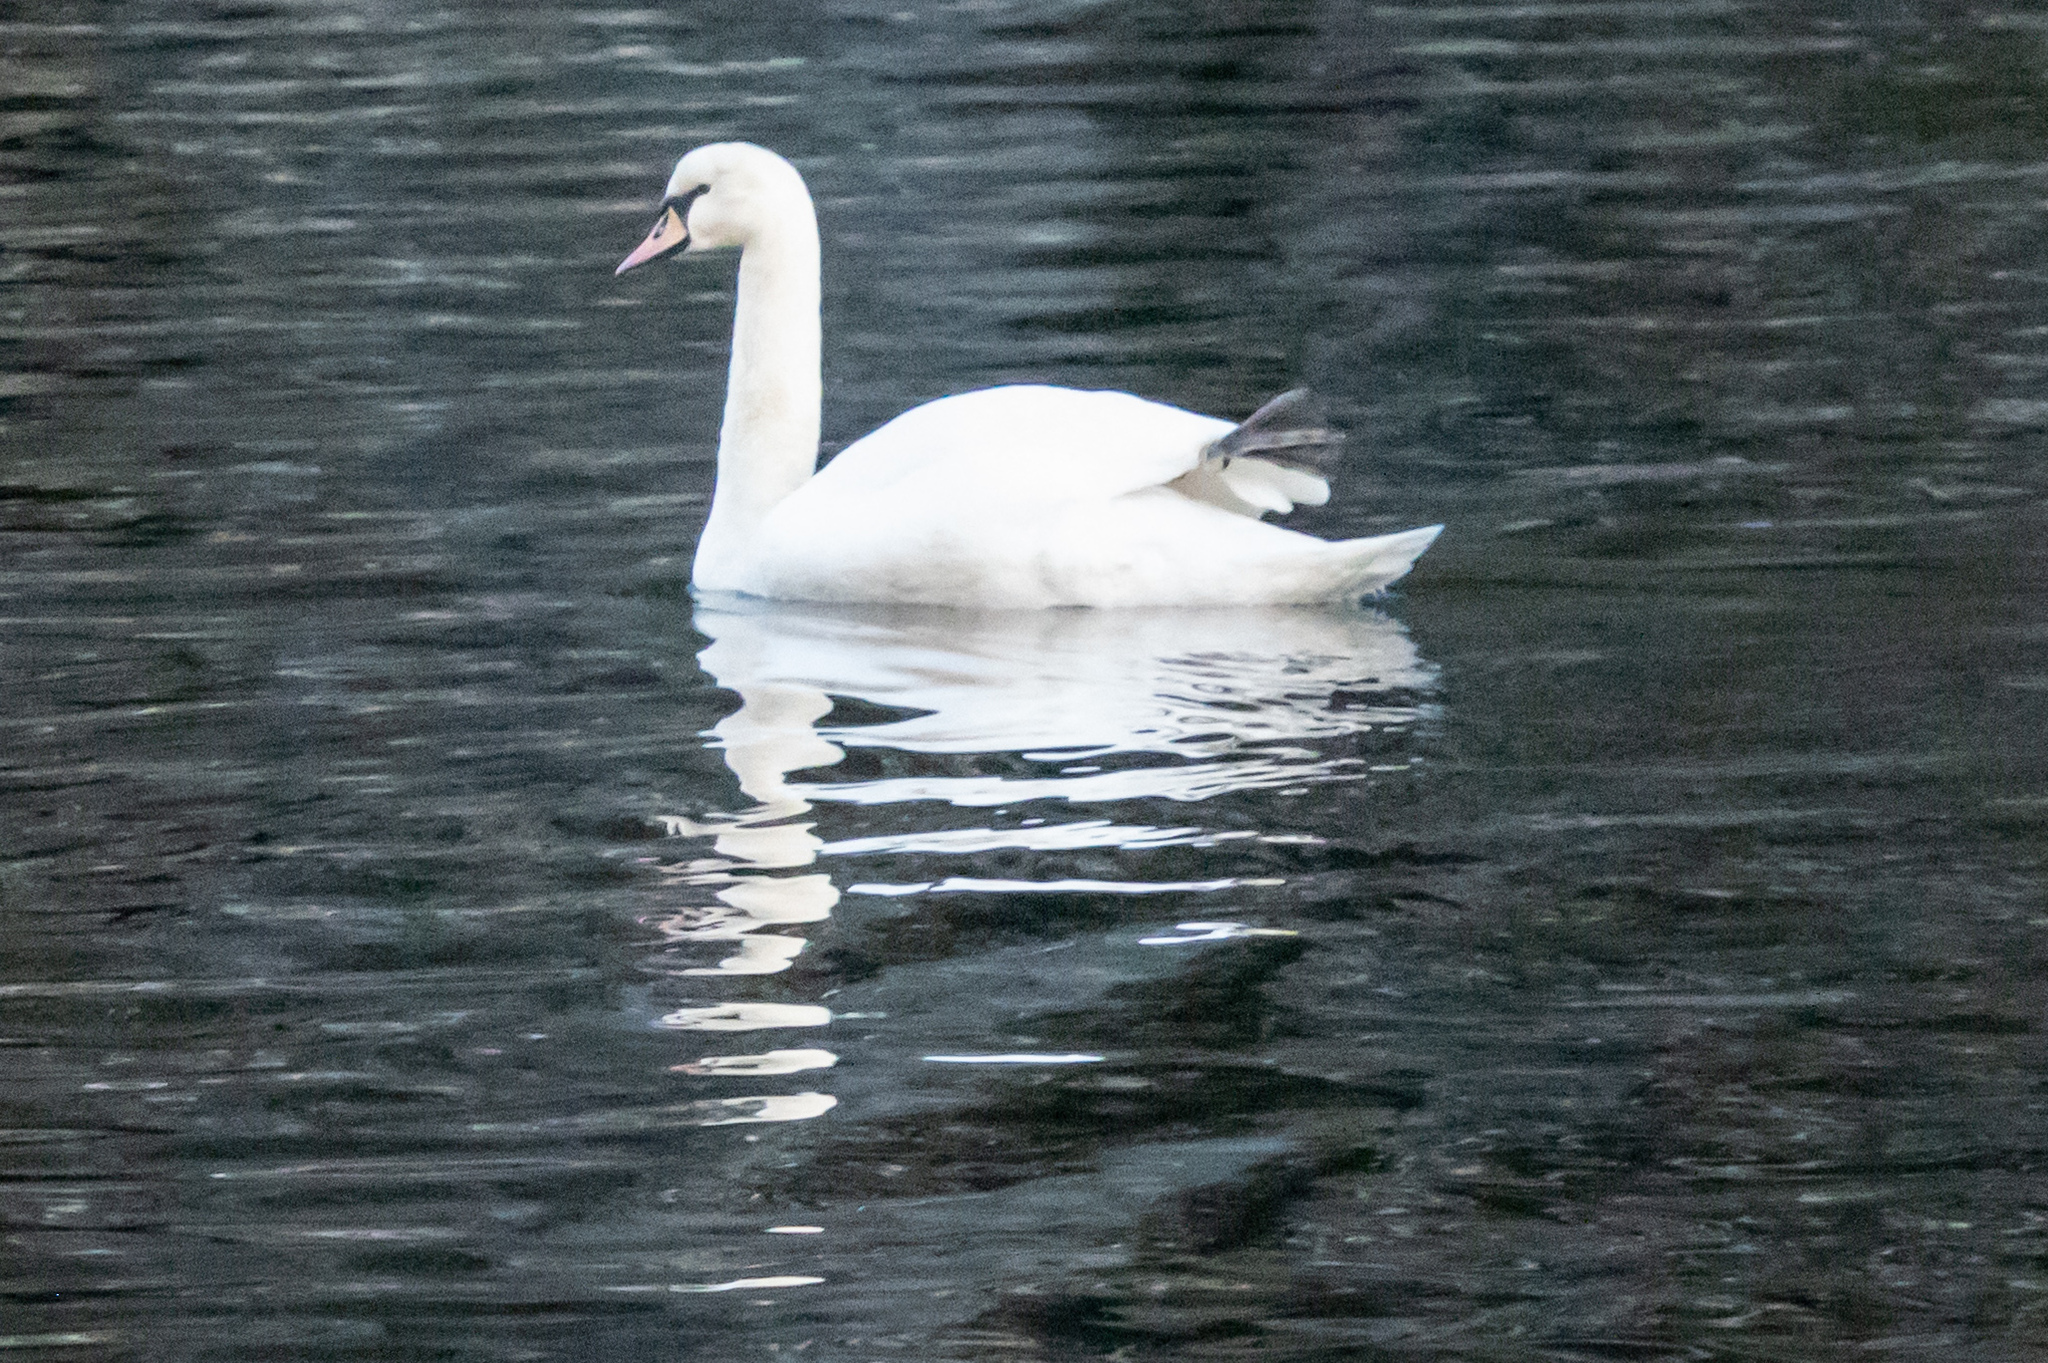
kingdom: Animalia
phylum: Chordata
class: Aves
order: Anseriformes
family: Anatidae
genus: Cygnus
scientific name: Cygnus olor
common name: Mute swan
